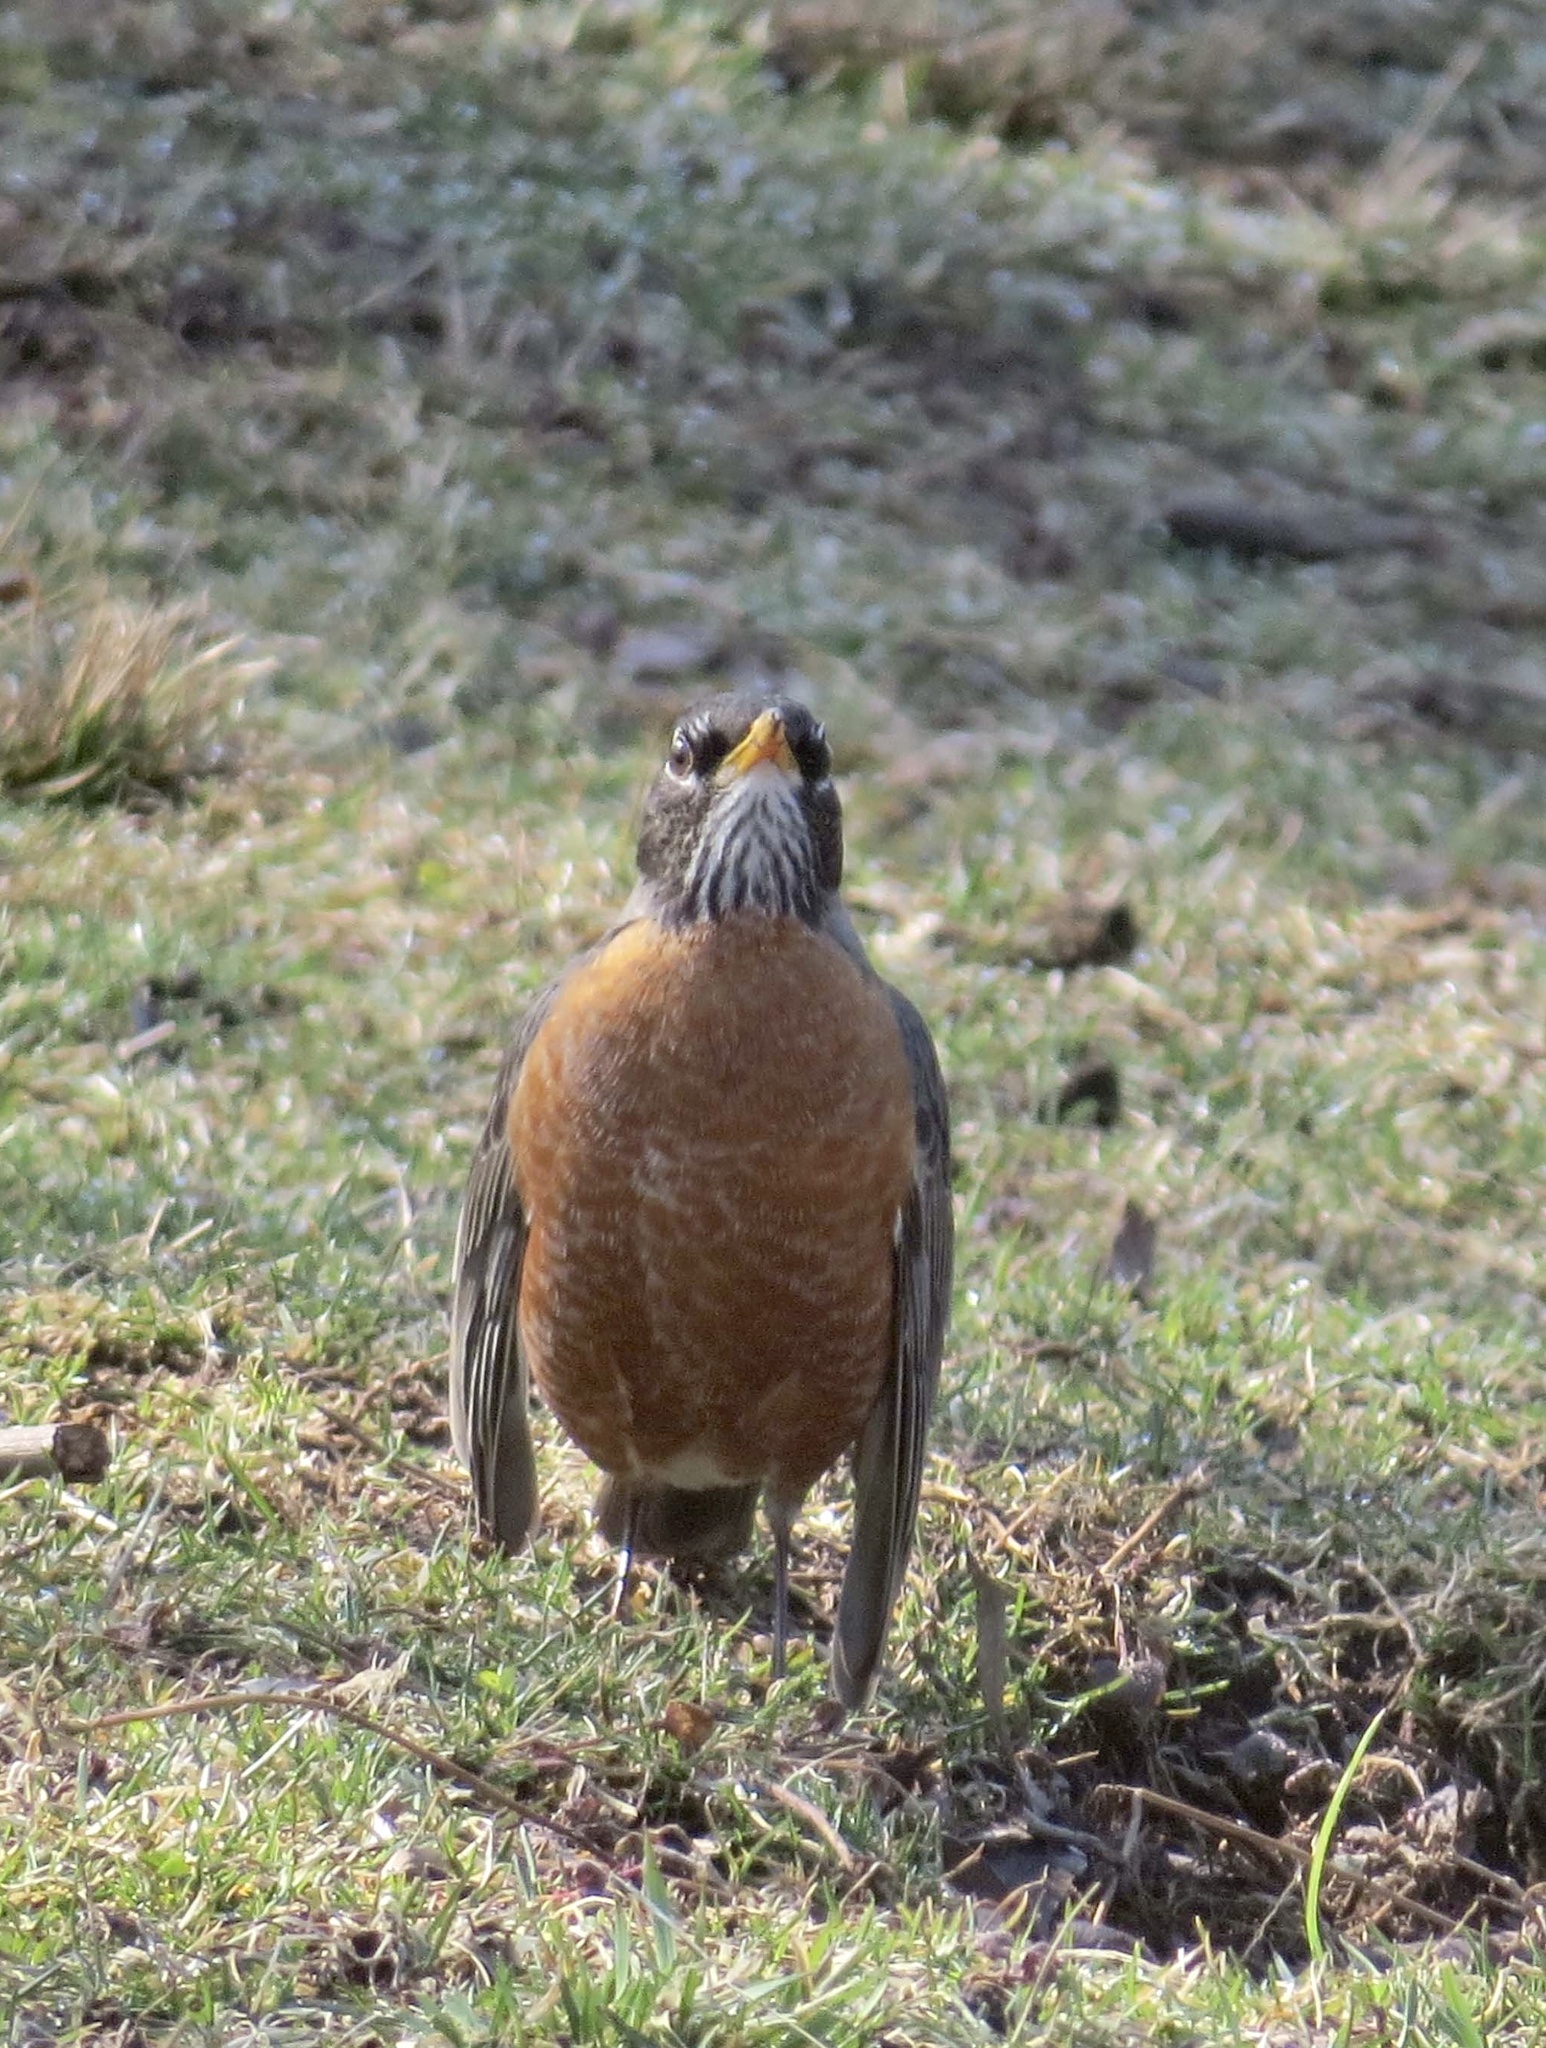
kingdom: Animalia
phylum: Chordata
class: Aves
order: Passeriformes
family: Turdidae
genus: Turdus
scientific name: Turdus migratorius
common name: American robin
